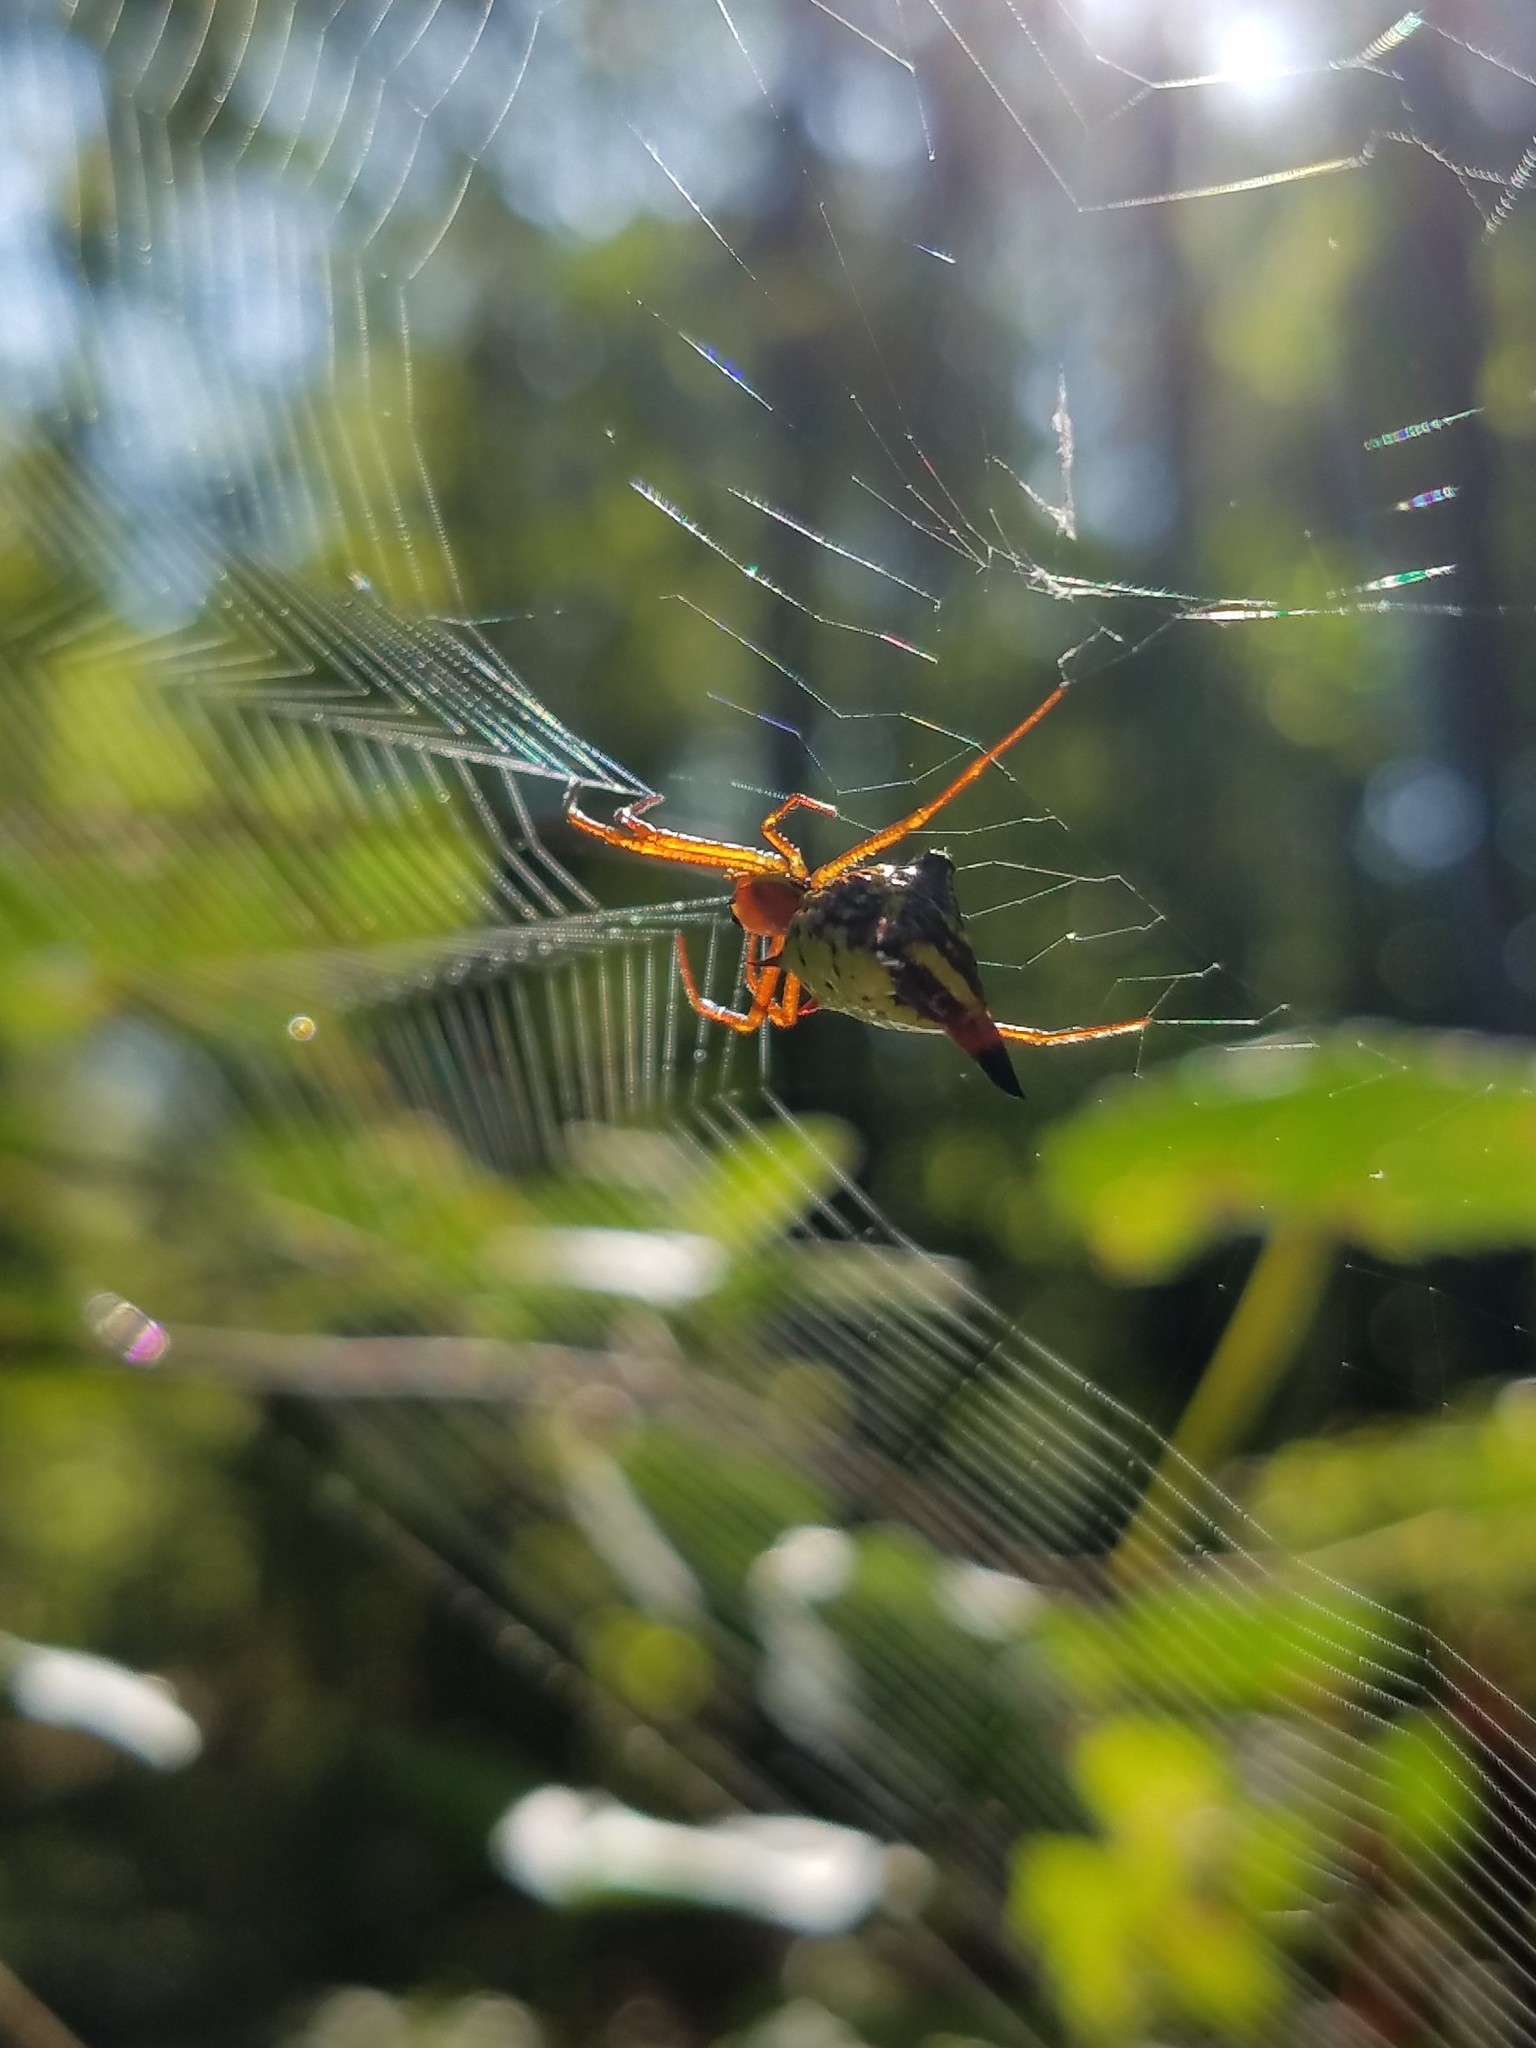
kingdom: Animalia
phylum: Arthropoda
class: Arachnida
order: Araneae
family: Araneidae
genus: Micrathena
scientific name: Micrathena sagittata
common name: Orb weavers
